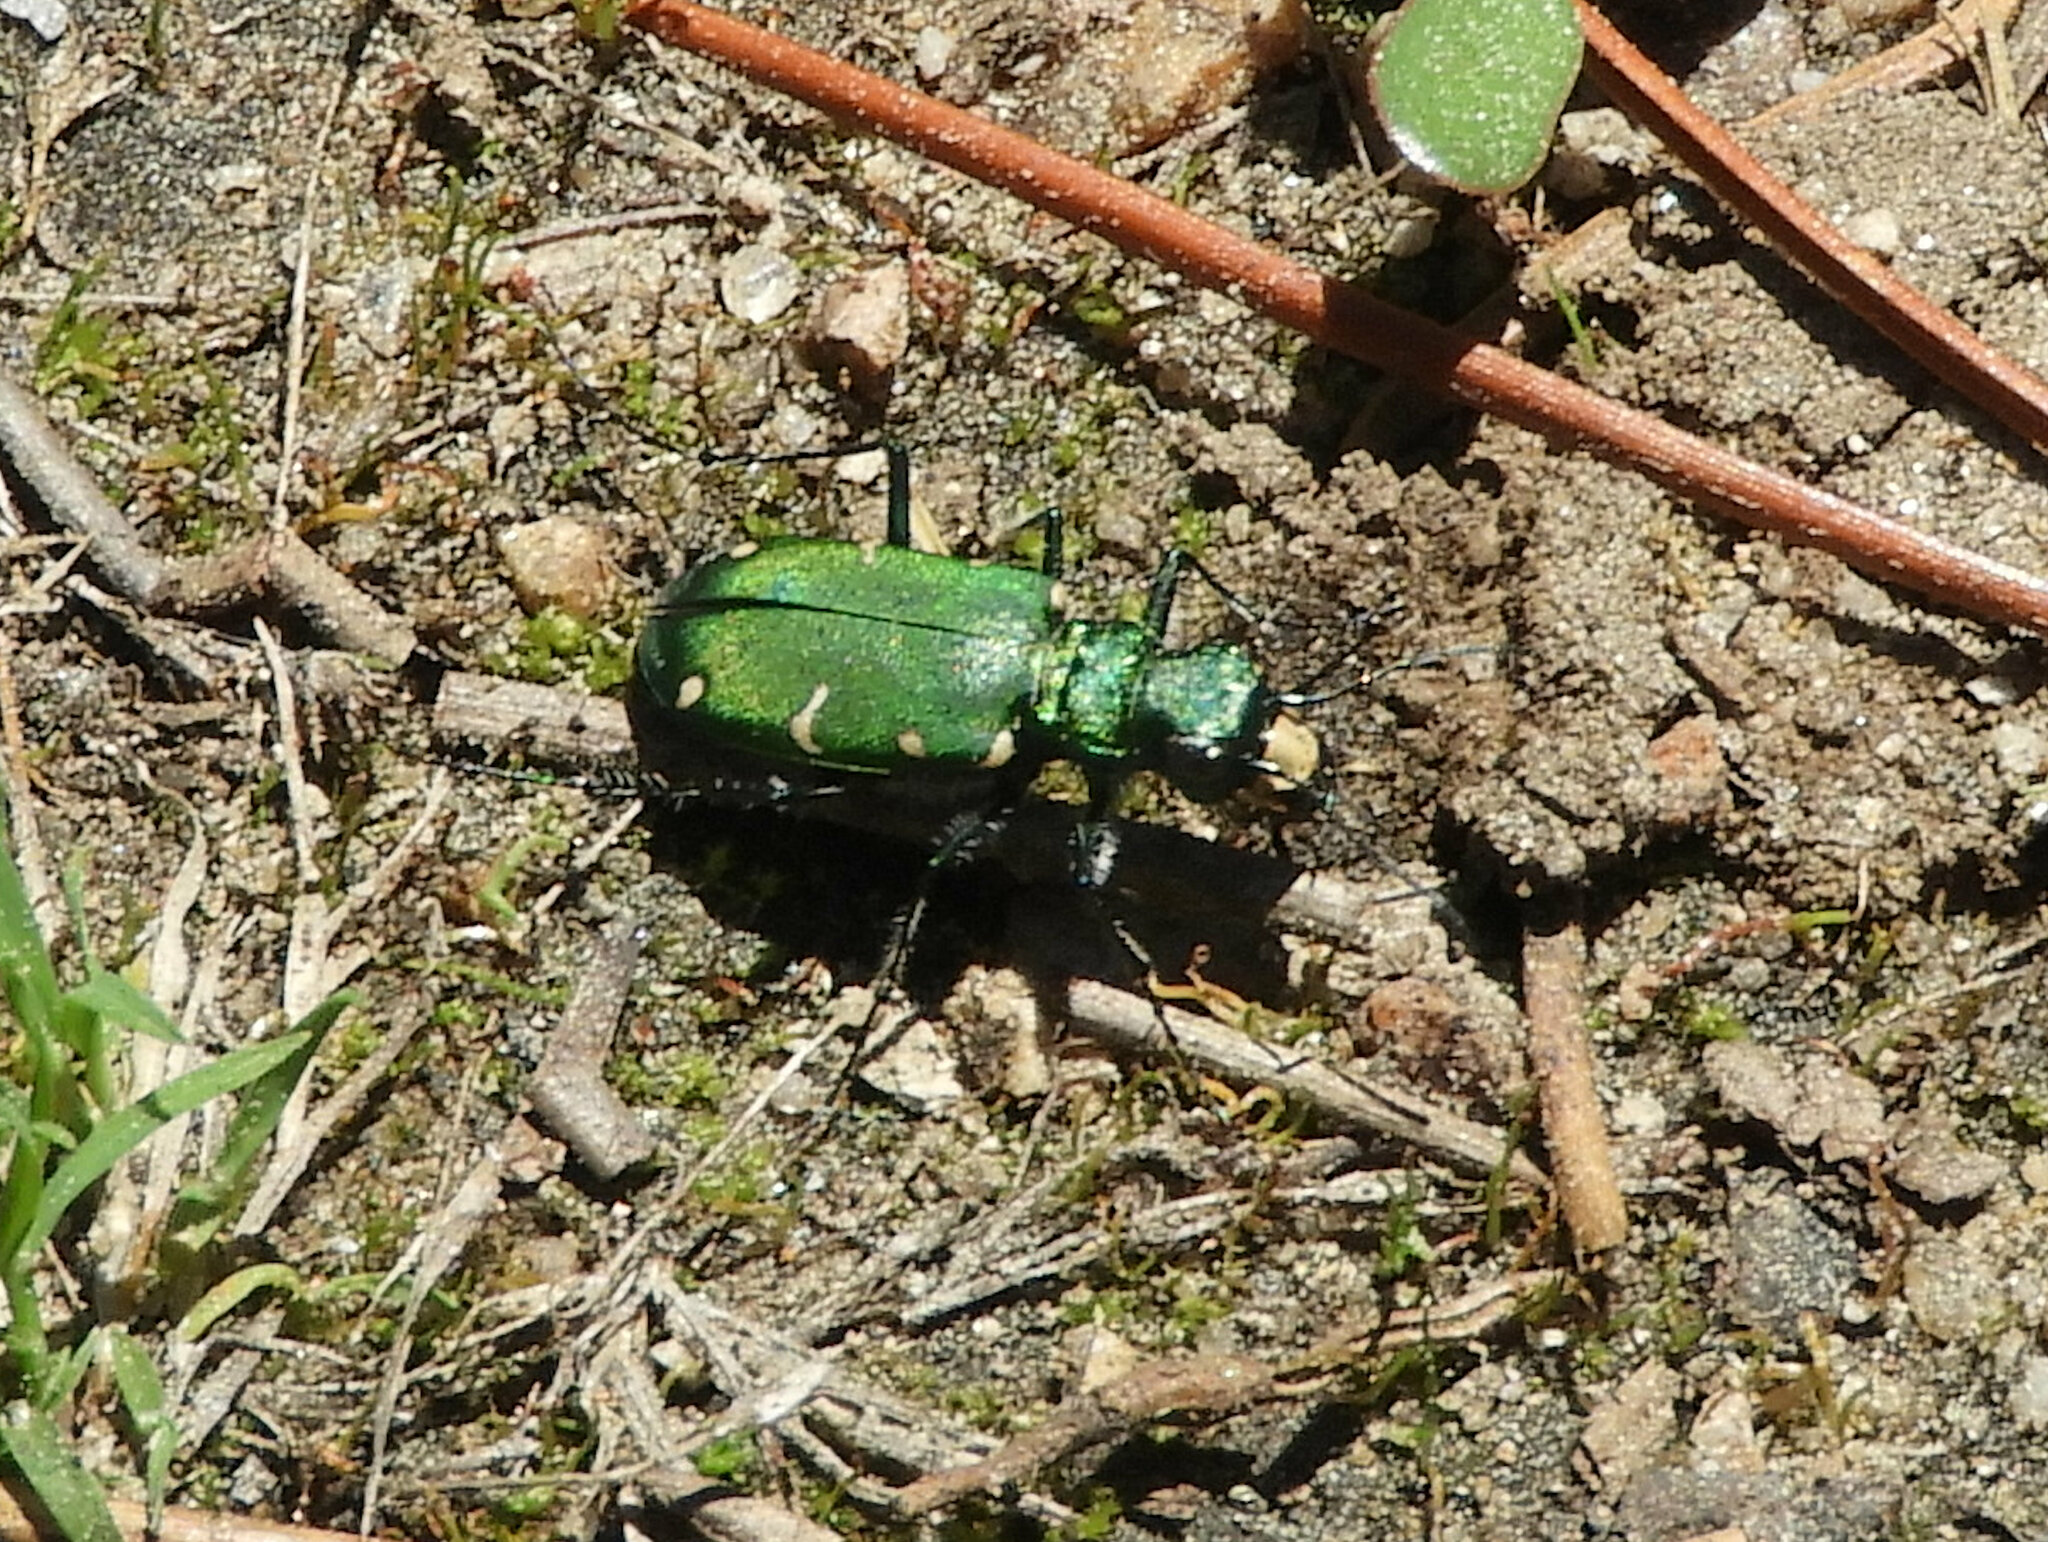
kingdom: Animalia
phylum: Arthropoda
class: Insecta
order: Coleoptera
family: Carabidae
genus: Cicindela
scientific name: Cicindela longilabris
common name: Boreal long-lipped tiger beetle
